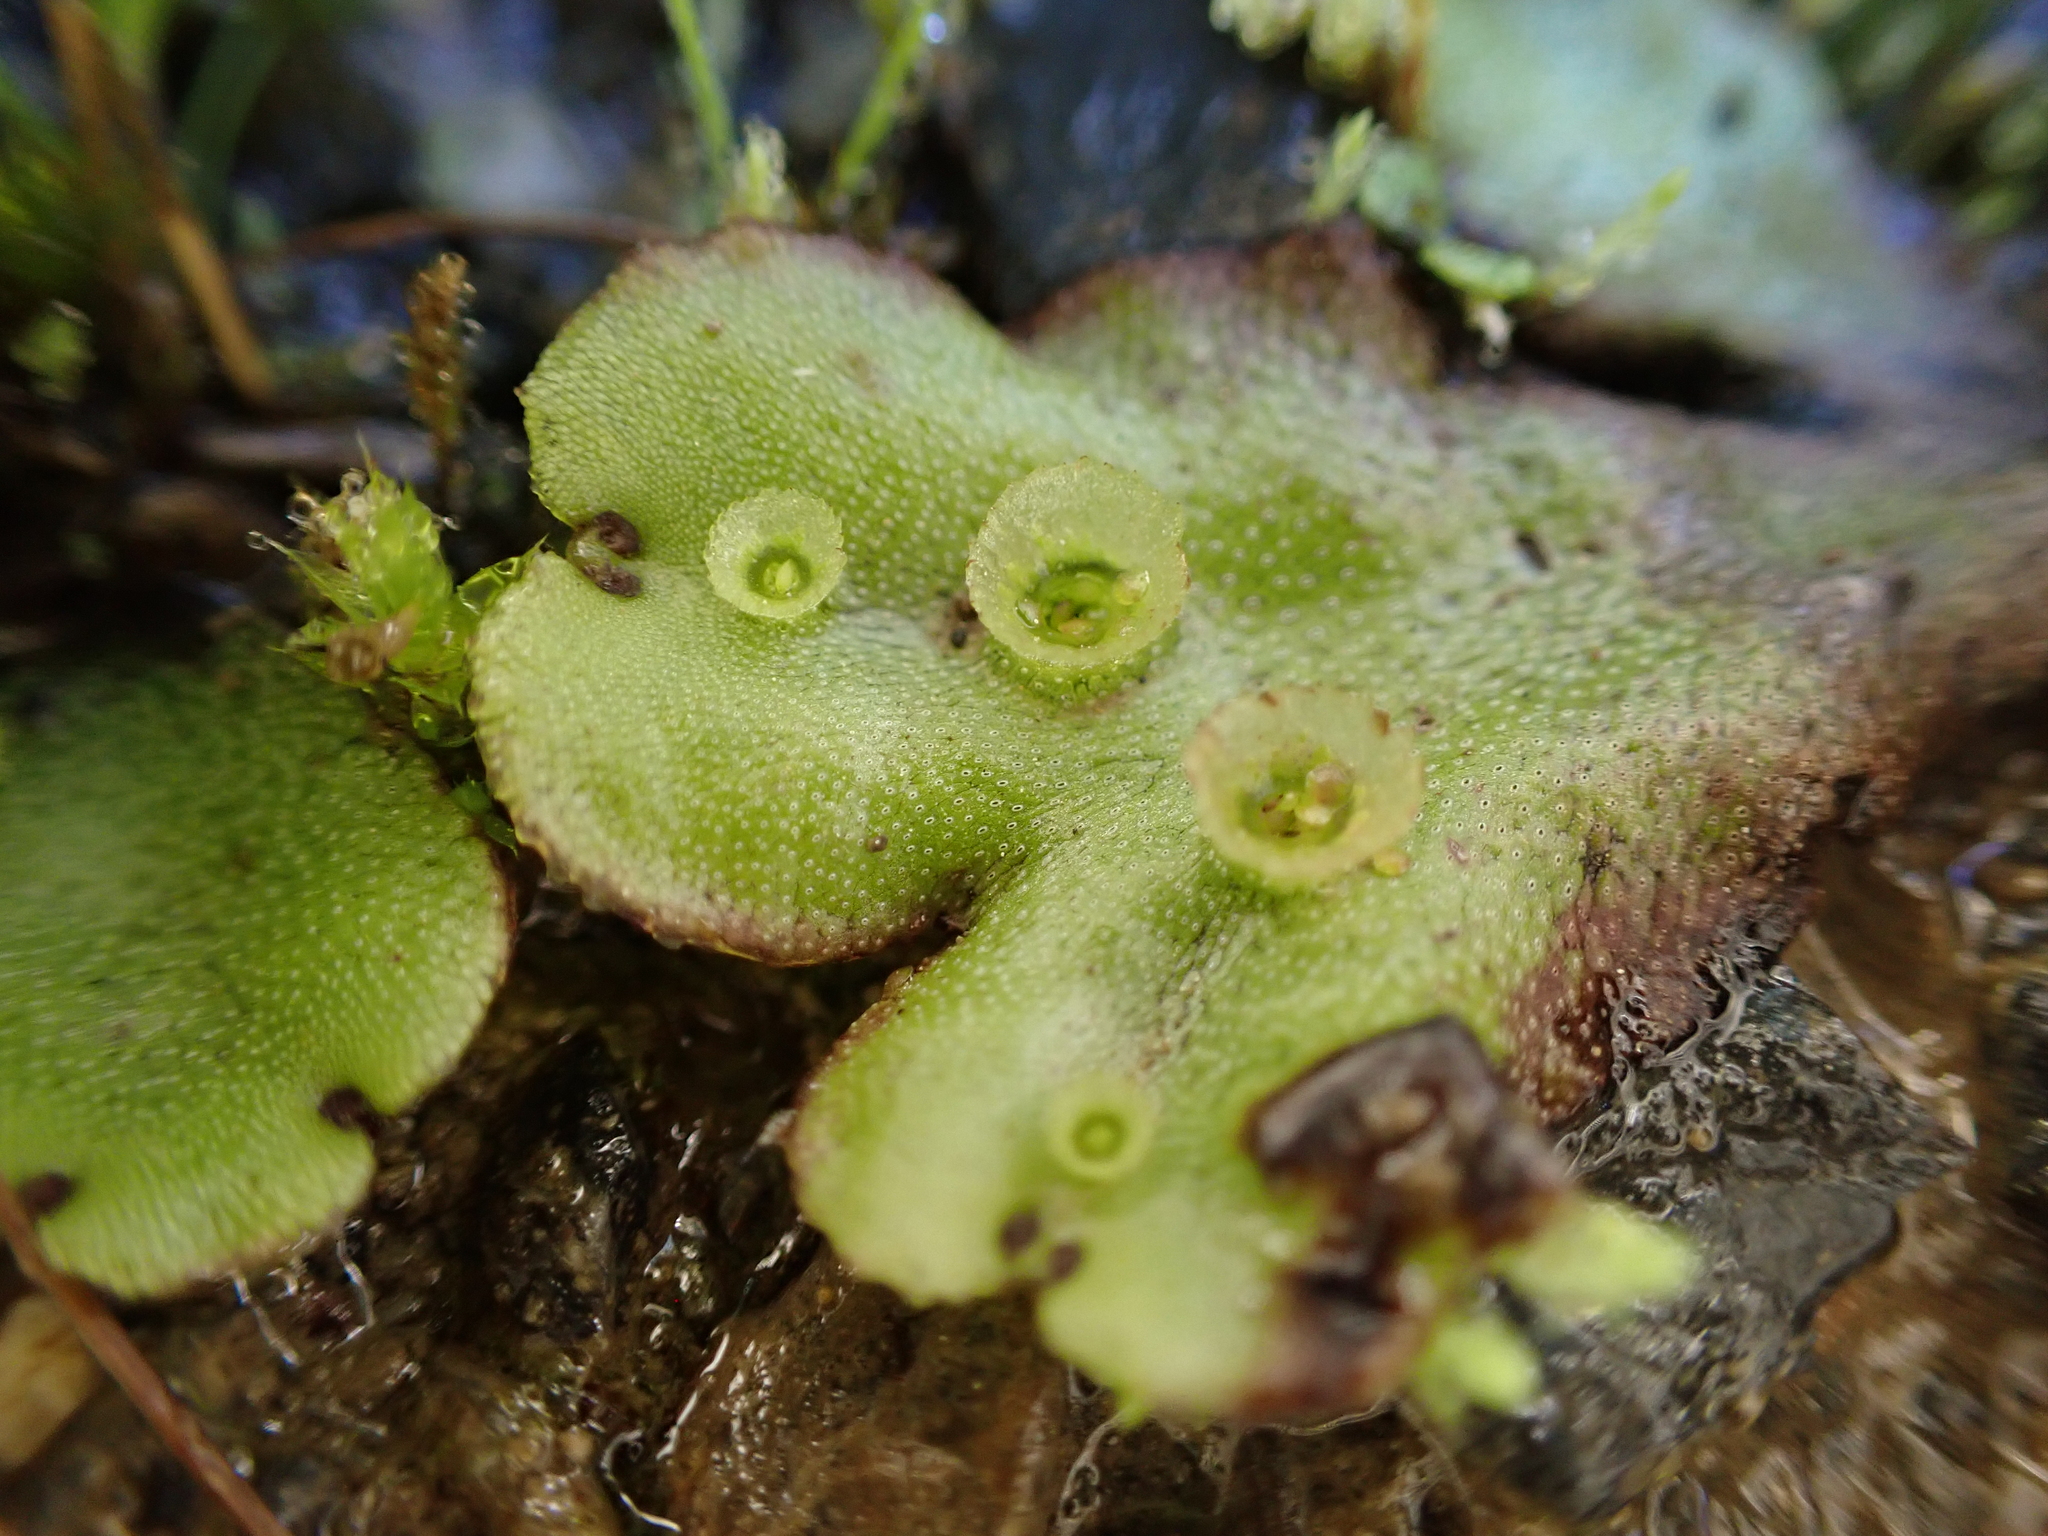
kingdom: Plantae
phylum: Marchantiophyta
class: Marchantiopsida
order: Marchantiales
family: Marchantiaceae
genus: Marchantia
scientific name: Marchantia polymorpha
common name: Common liverwort
